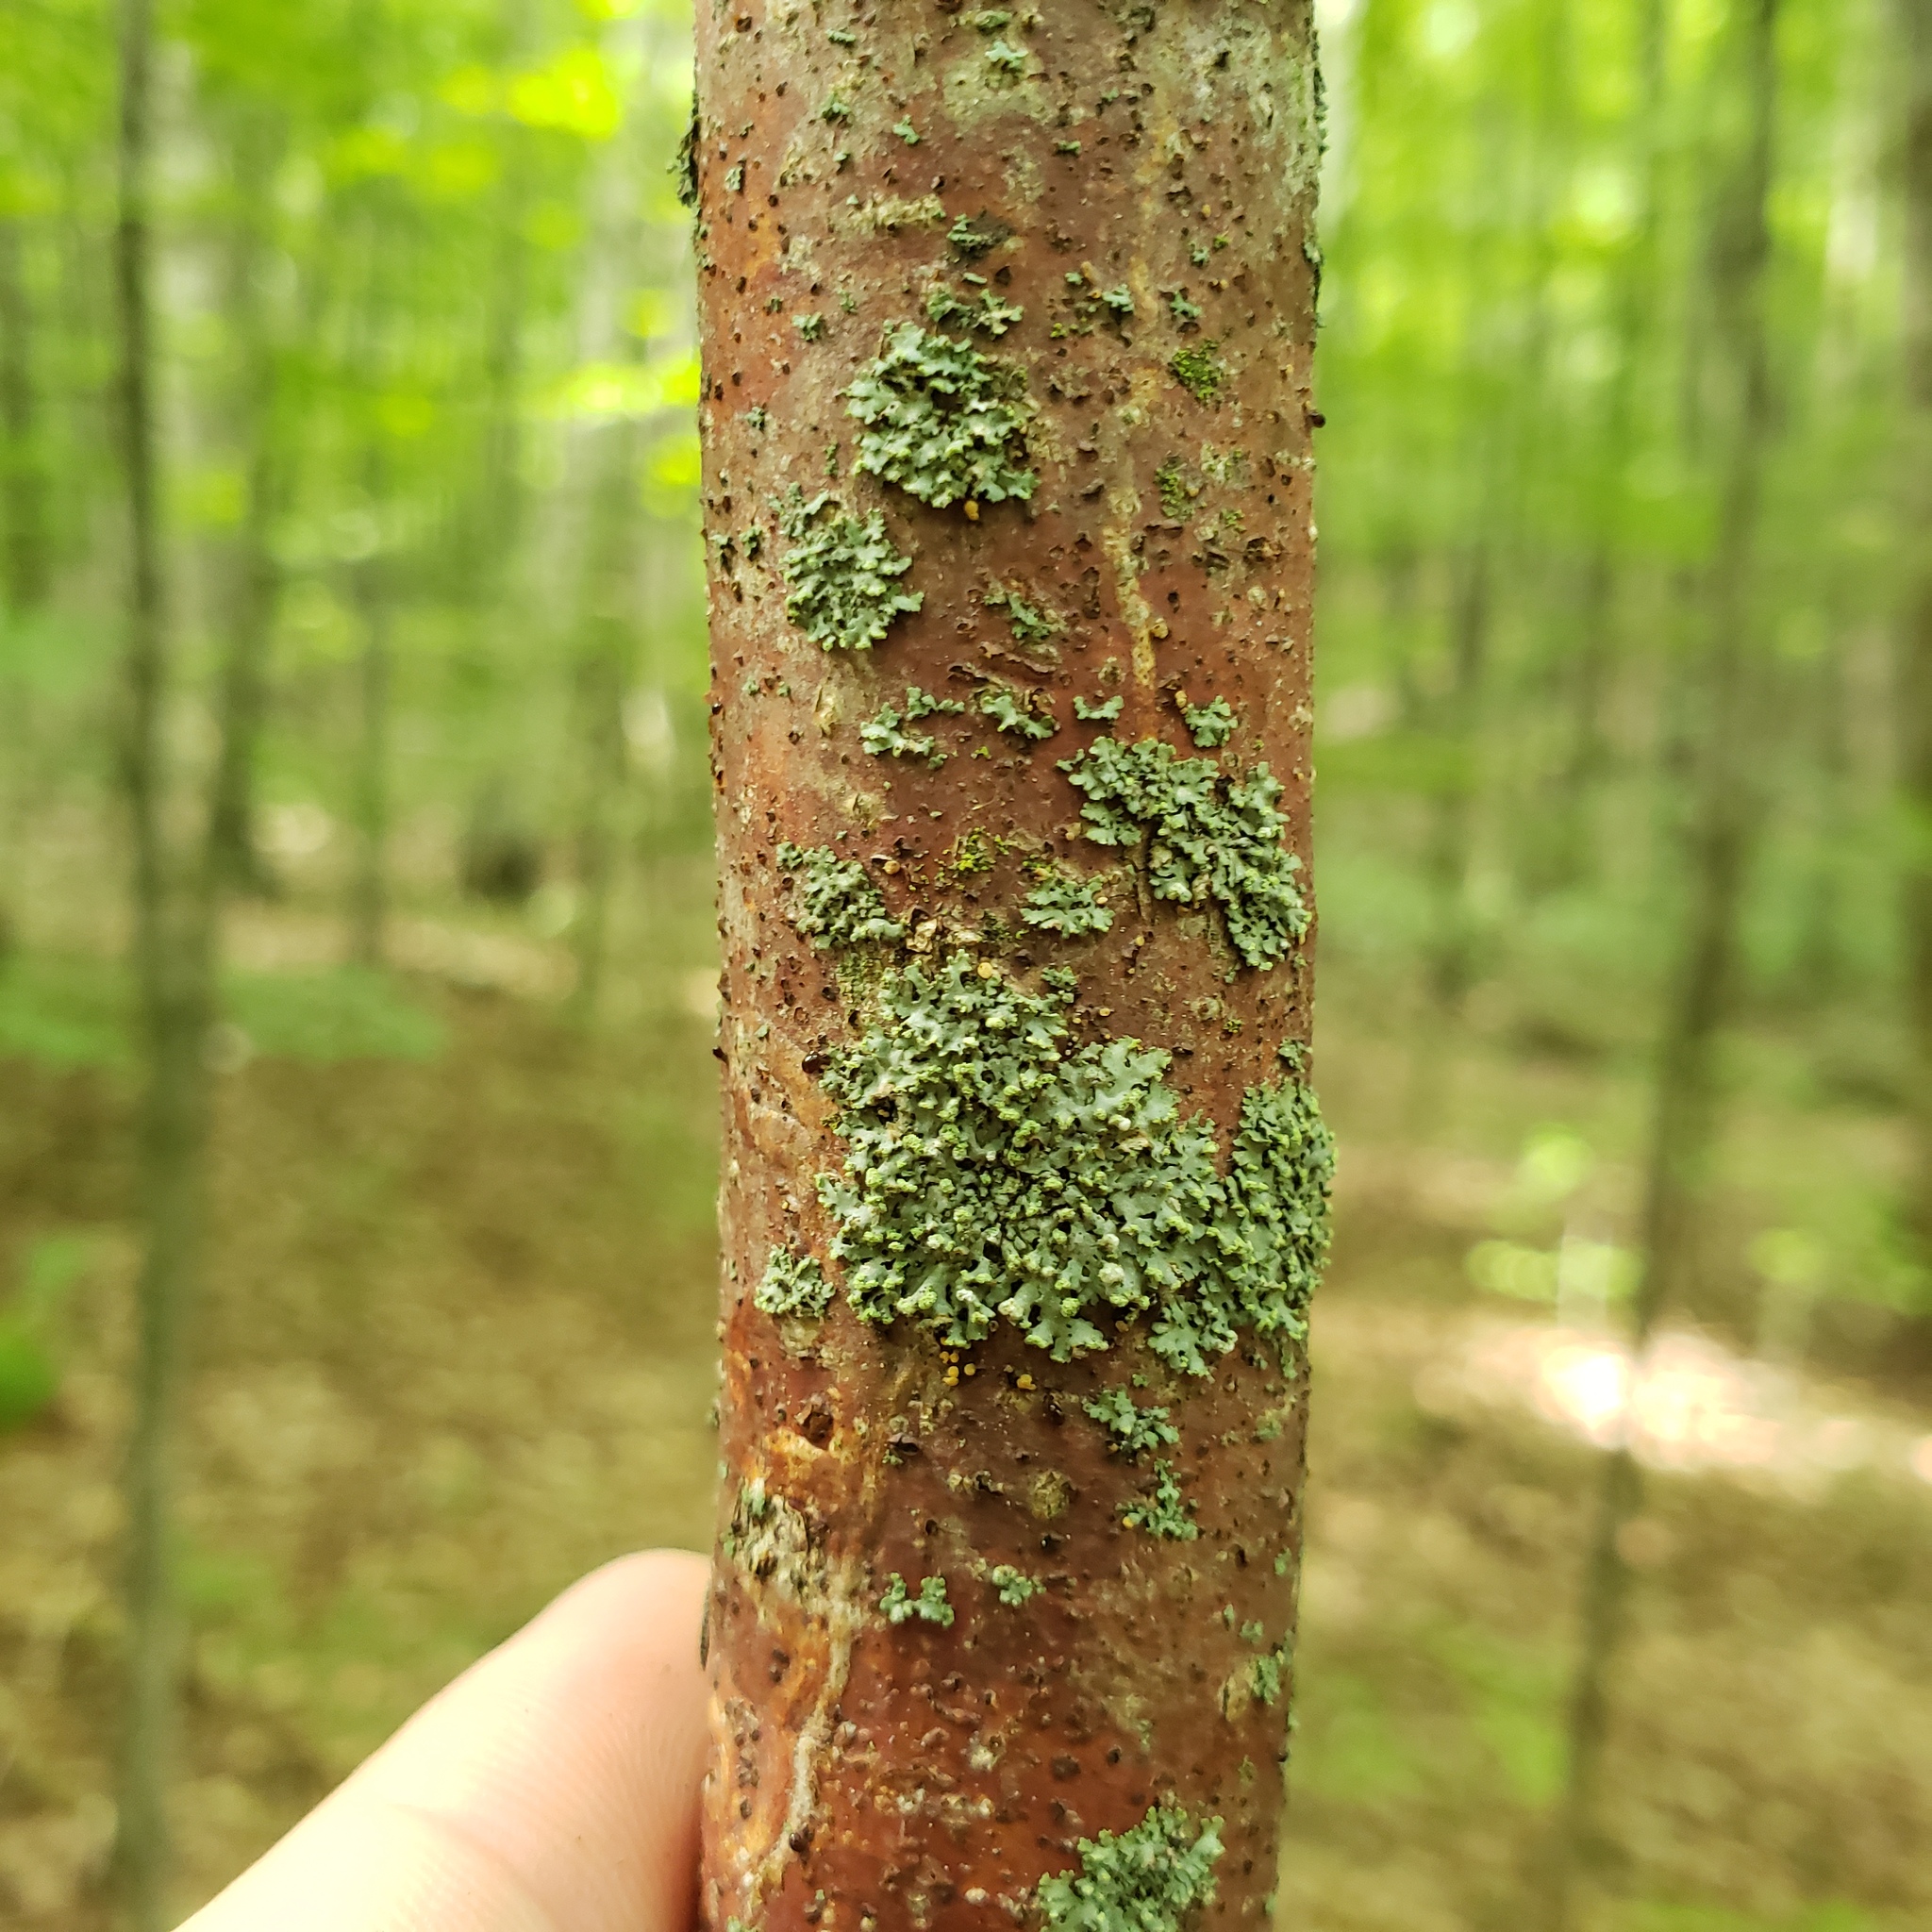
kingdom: Fungi
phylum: Ascomycota
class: Lecanoromycetes
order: Caliciales
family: Physciaceae
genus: Phaeophyscia
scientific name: Phaeophyscia pusilloides
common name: Pom-pom shadow lichen
